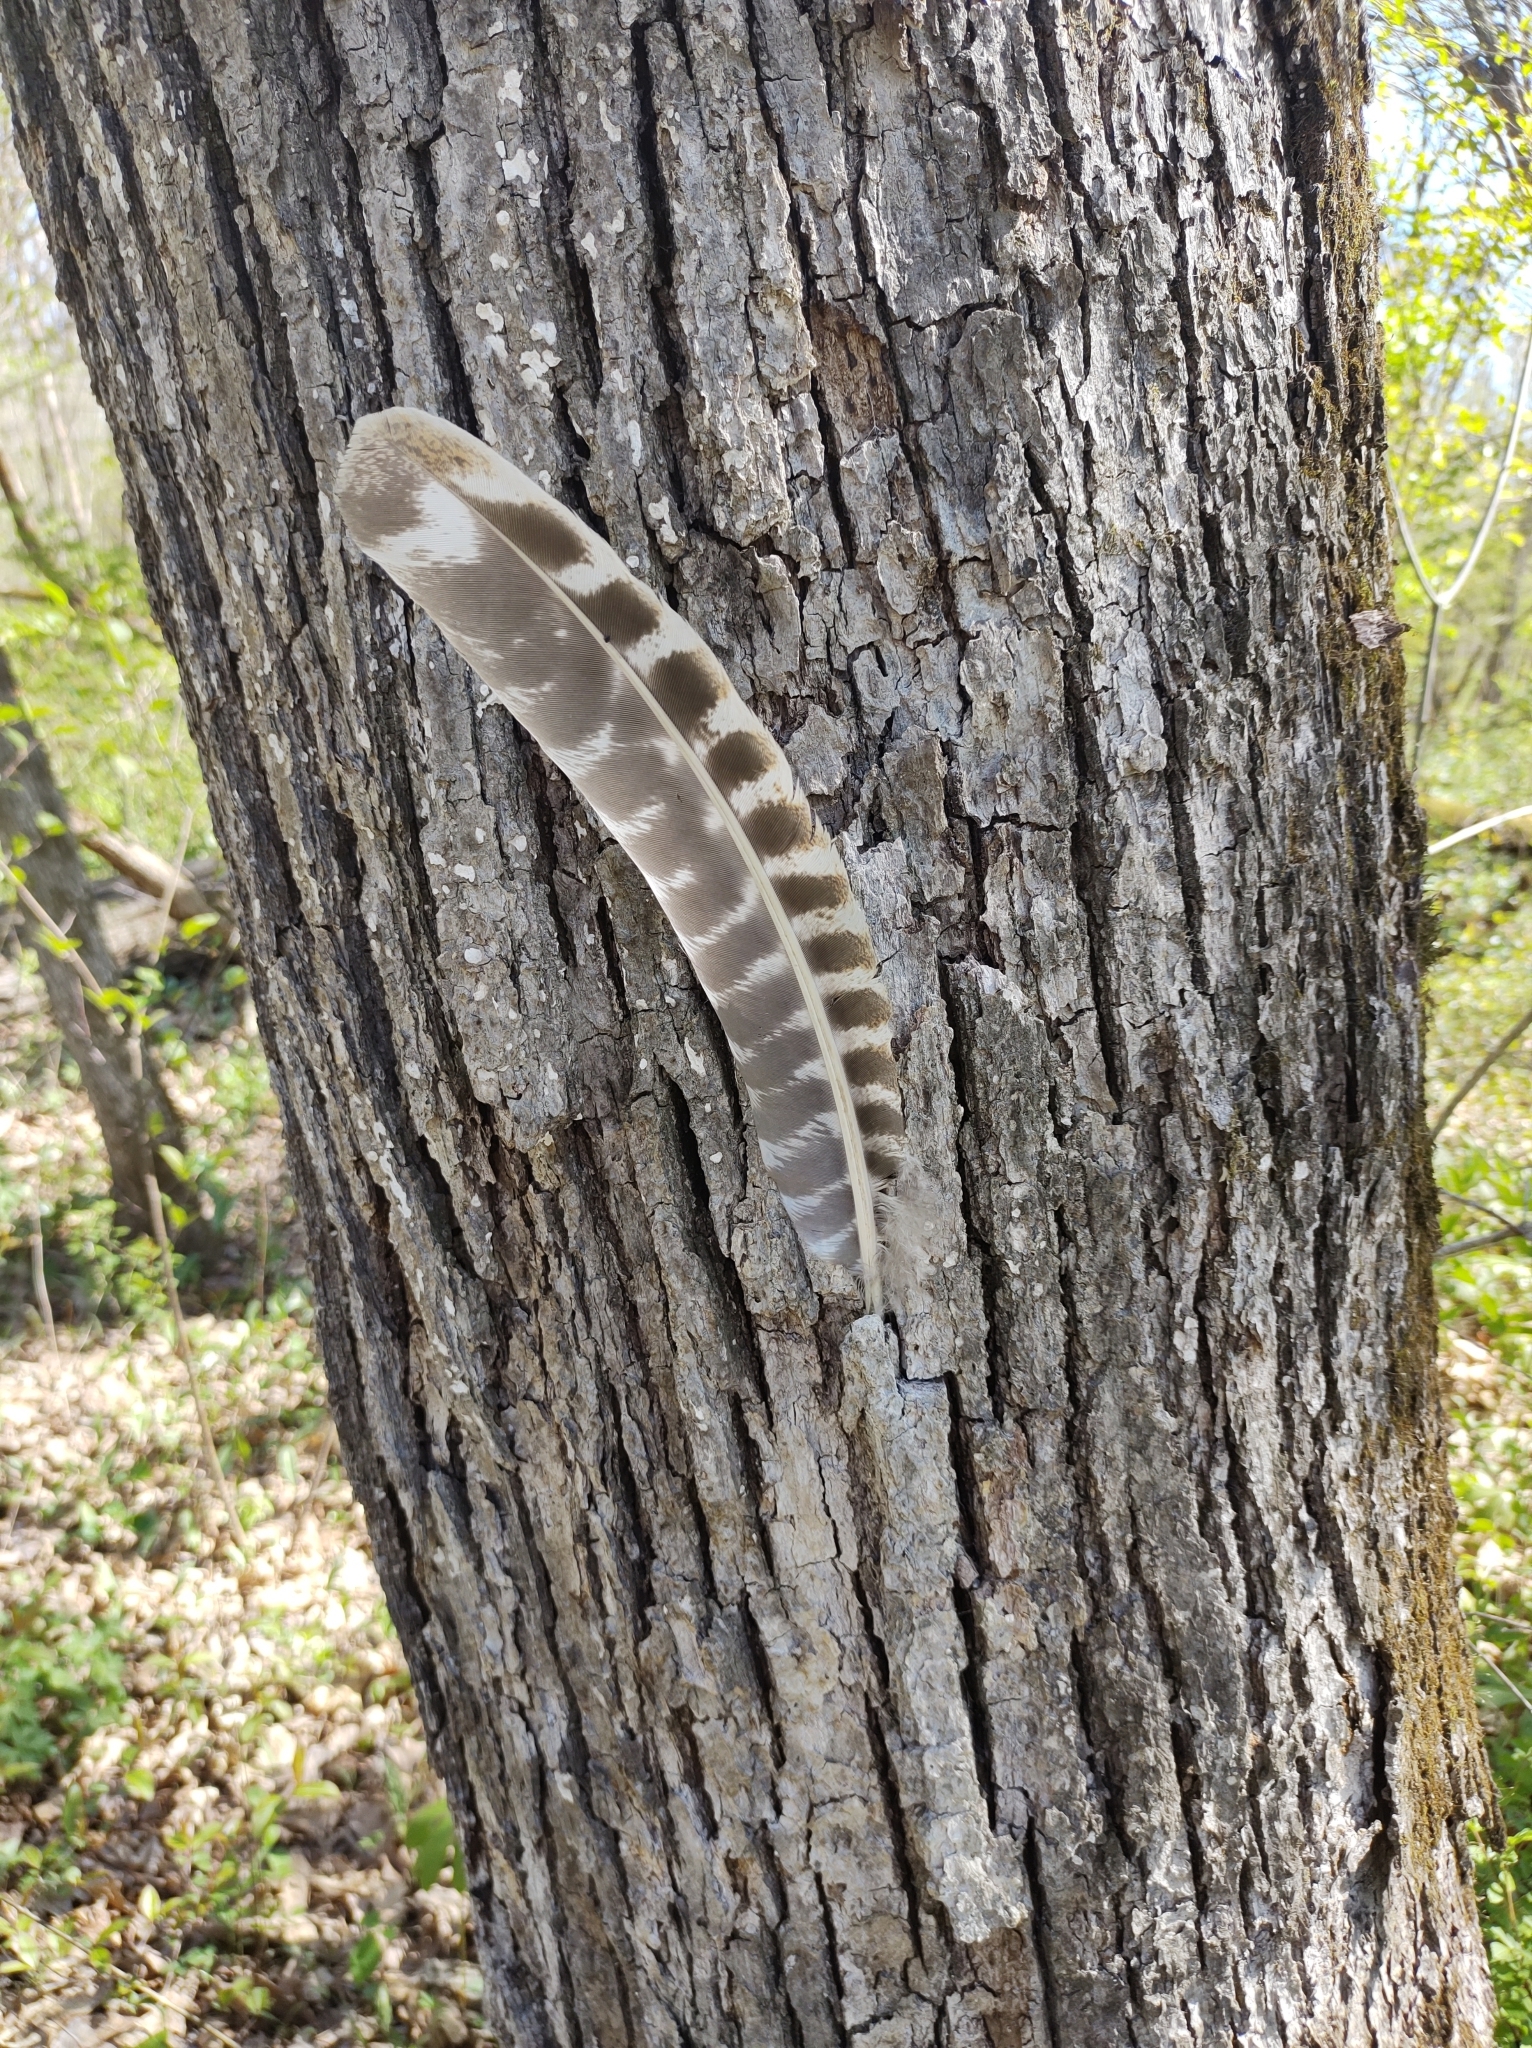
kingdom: Animalia
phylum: Chordata
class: Aves
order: Galliformes
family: Phasianidae
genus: Meleagris
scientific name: Meleagris gallopavo
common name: Wild turkey
